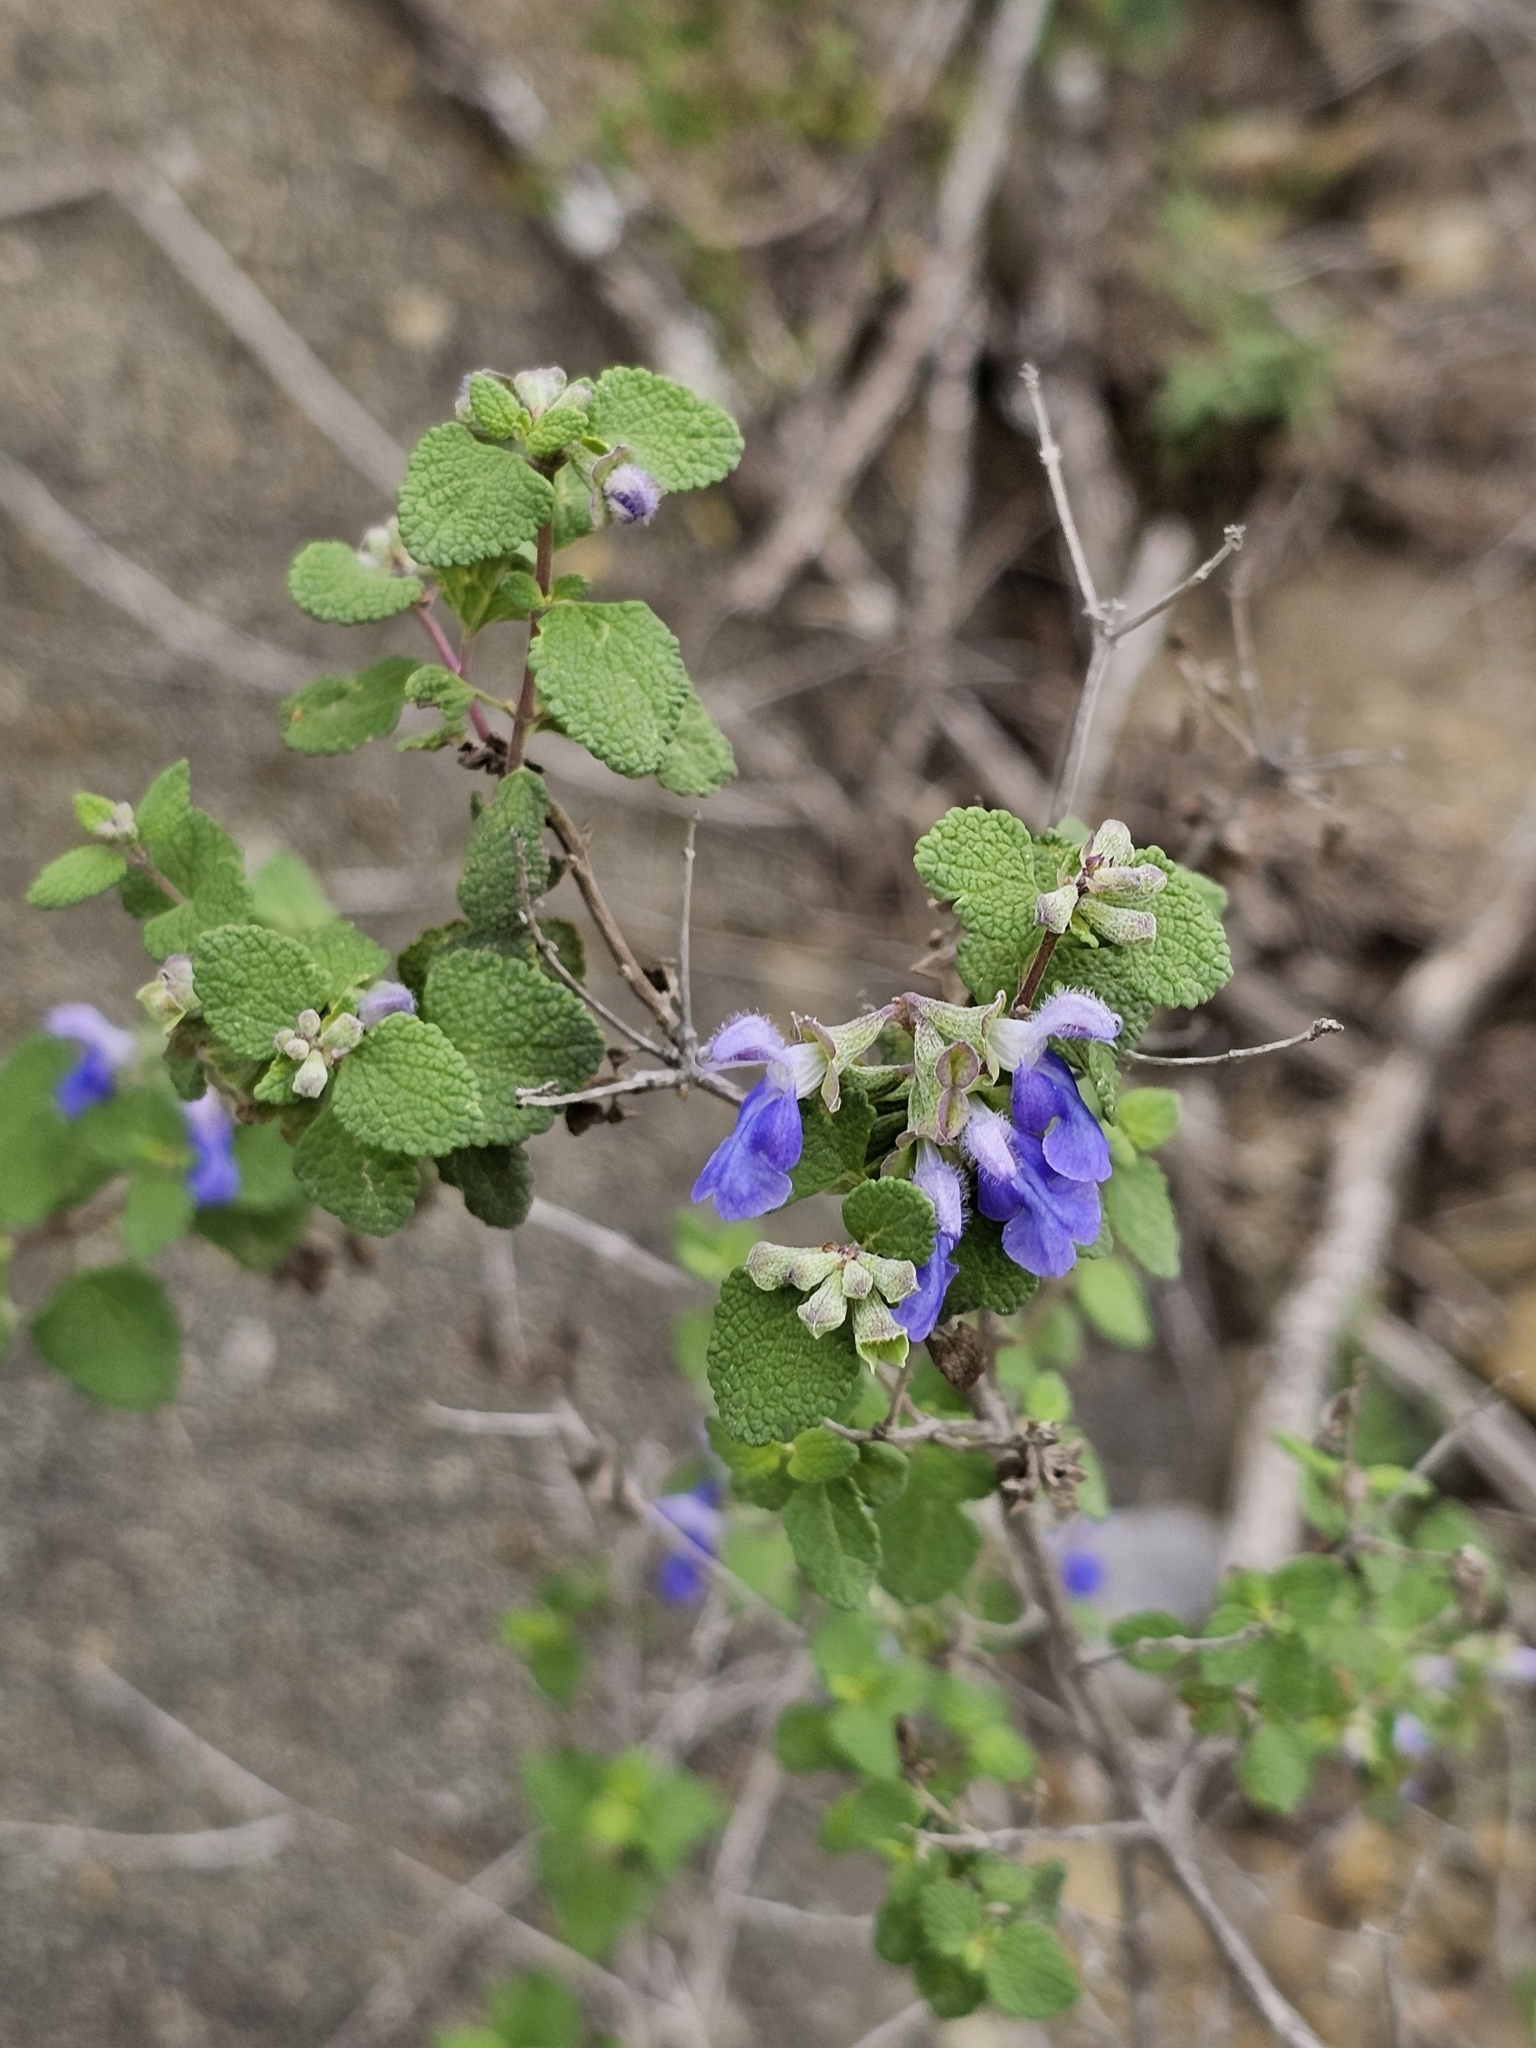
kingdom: Plantae
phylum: Tracheophyta
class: Magnoliopsida
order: Lamiales
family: Lamiaceae
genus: Salvia
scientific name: Salvia ballotiflora
